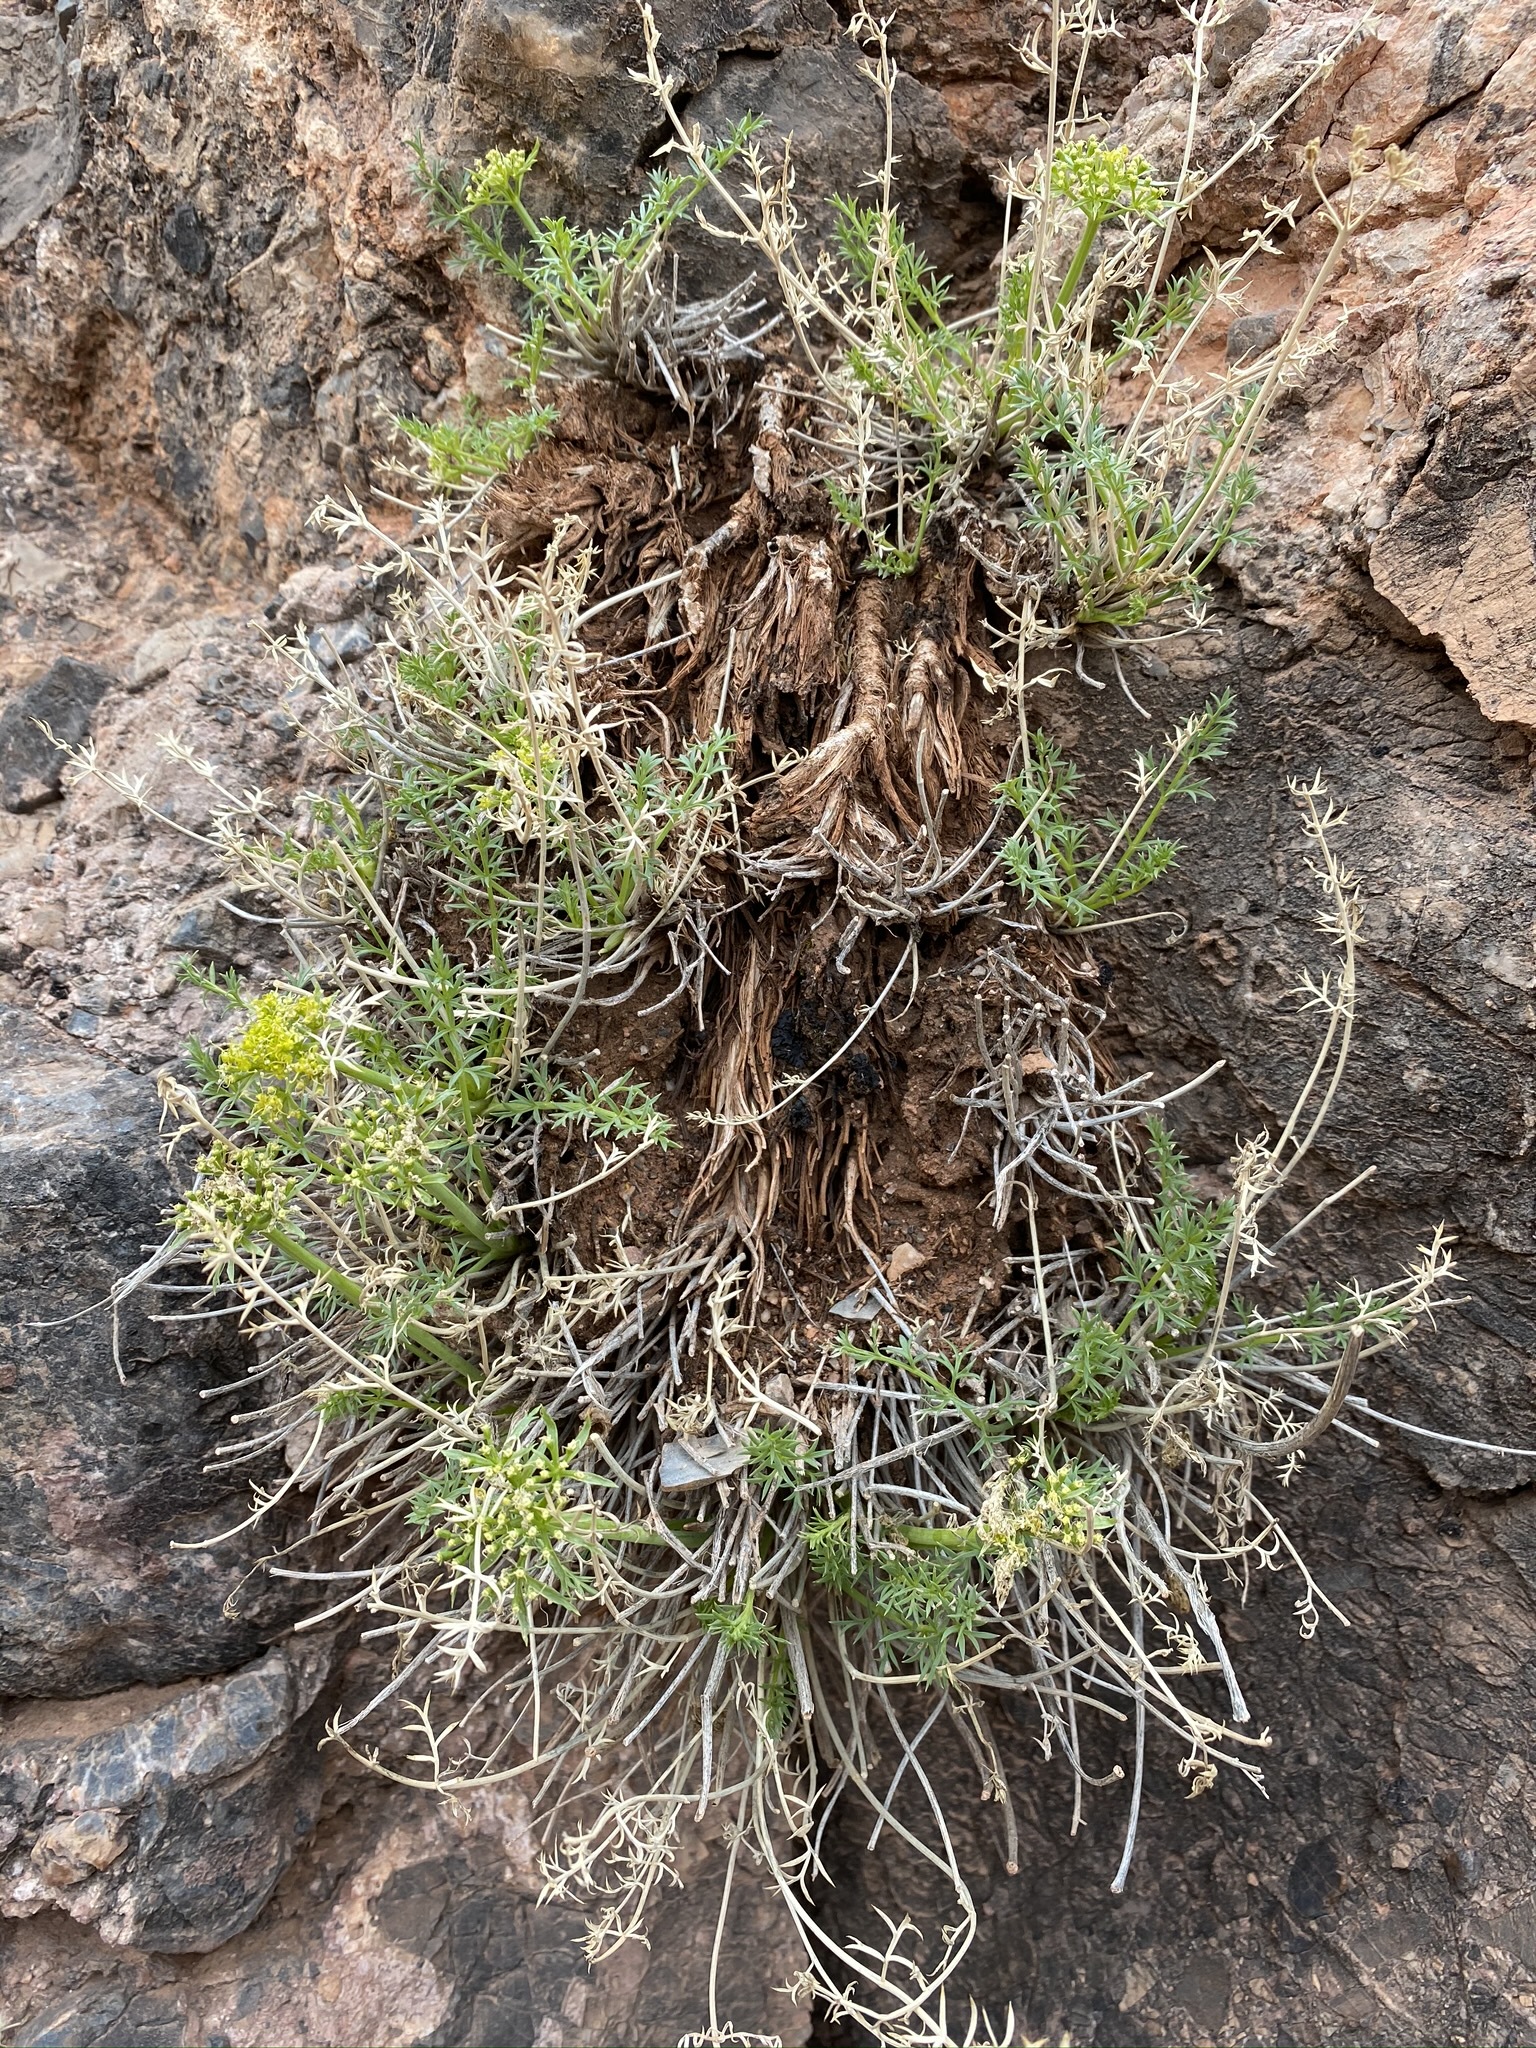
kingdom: Plantae
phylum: Tracheophyta
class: Magnoliopsida
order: Apiales
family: Apiaceae
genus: Lomatium
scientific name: Lomatium parryi
